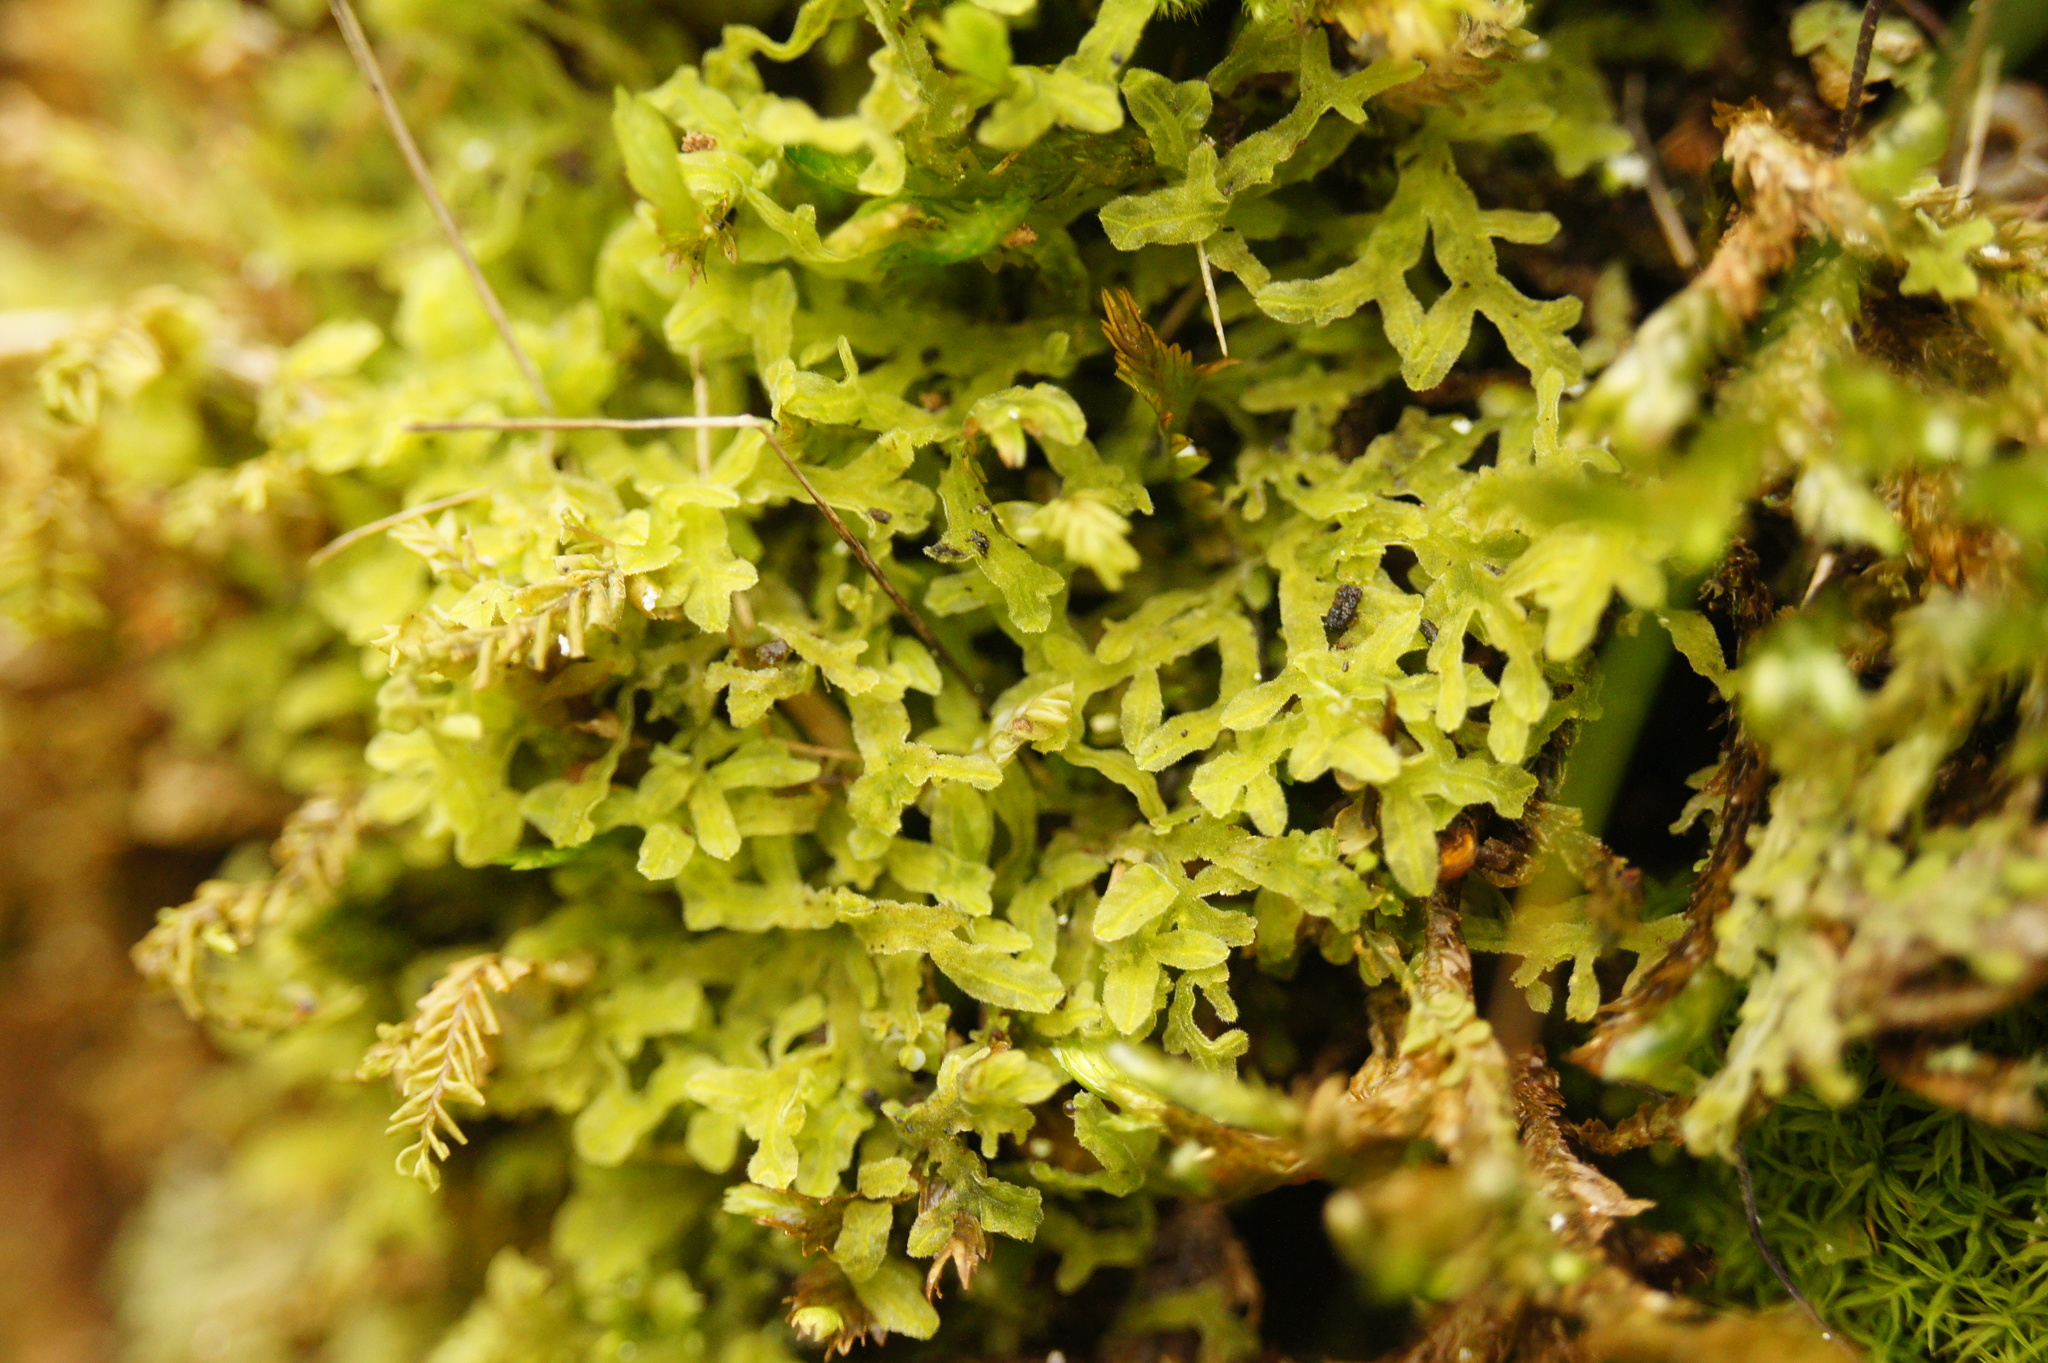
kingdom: Plantae
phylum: Marchantiophyta
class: Jungermanniopsida
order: Metzgeriales
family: Metzgeriaceae
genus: Metzgeria
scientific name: Metzgeria pubescens
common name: Downy veilwort
